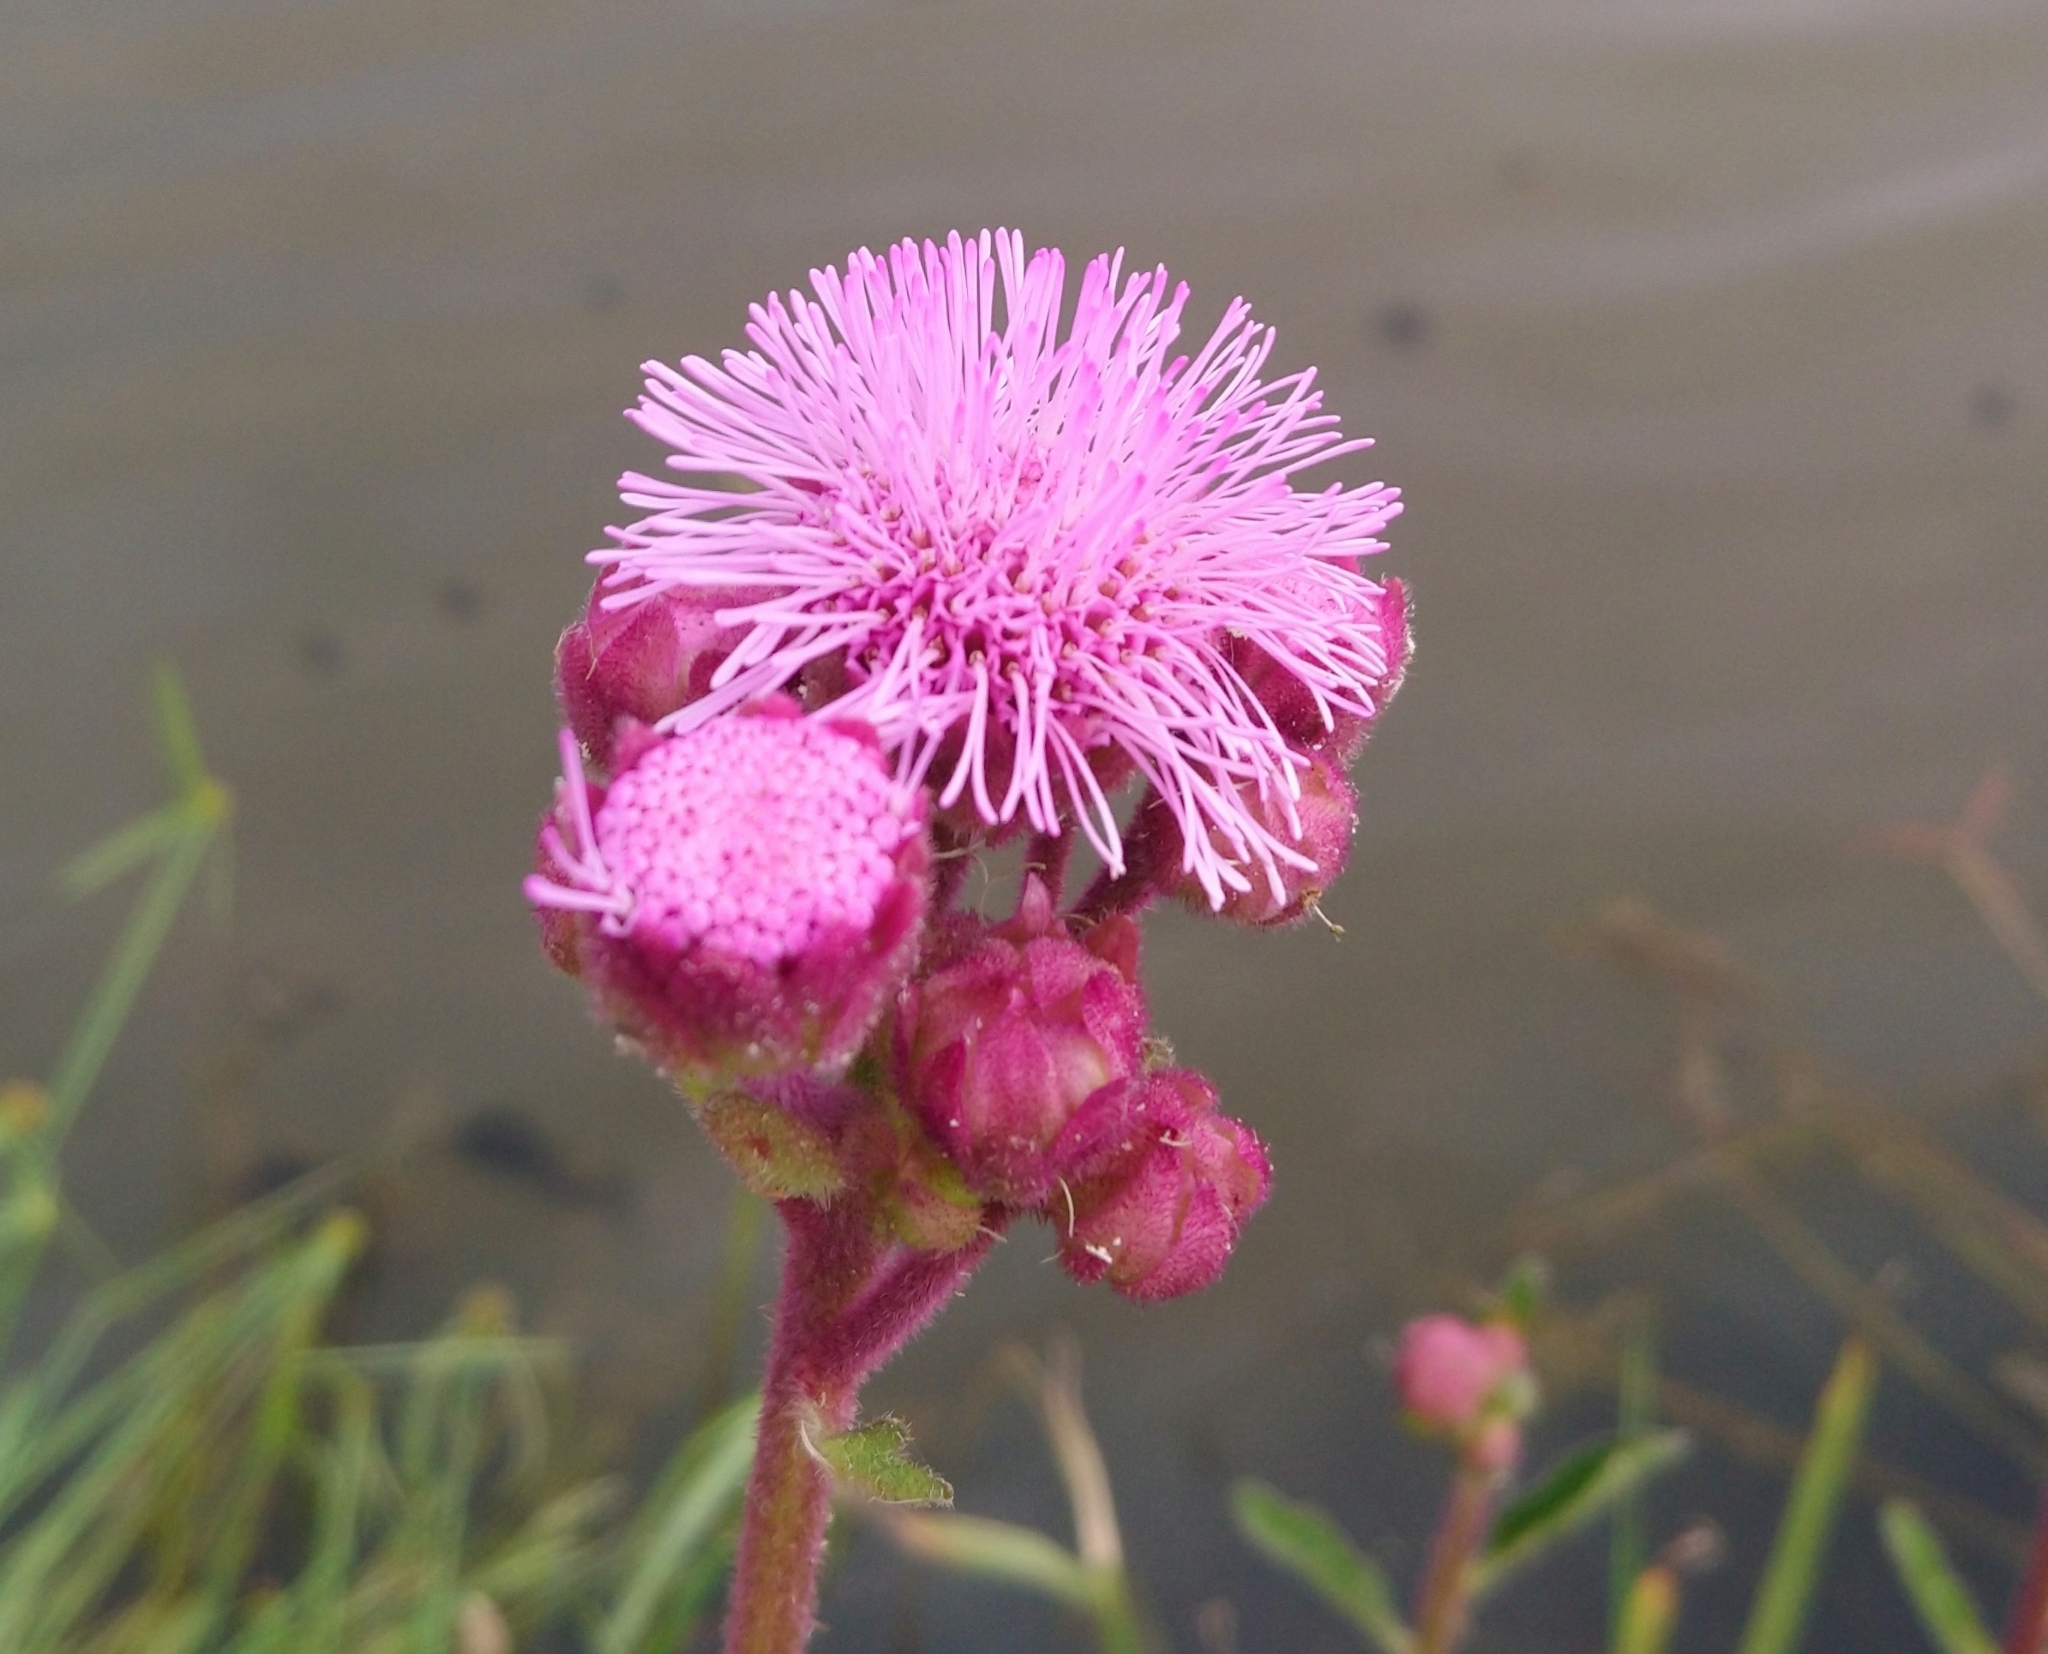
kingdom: Plantae
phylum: Tracheophyta
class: Magnoliopsida
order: Asterales
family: Asteraceae
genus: Campuloclinium
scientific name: Campuloclinium macrocephalum
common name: Pompomweed
